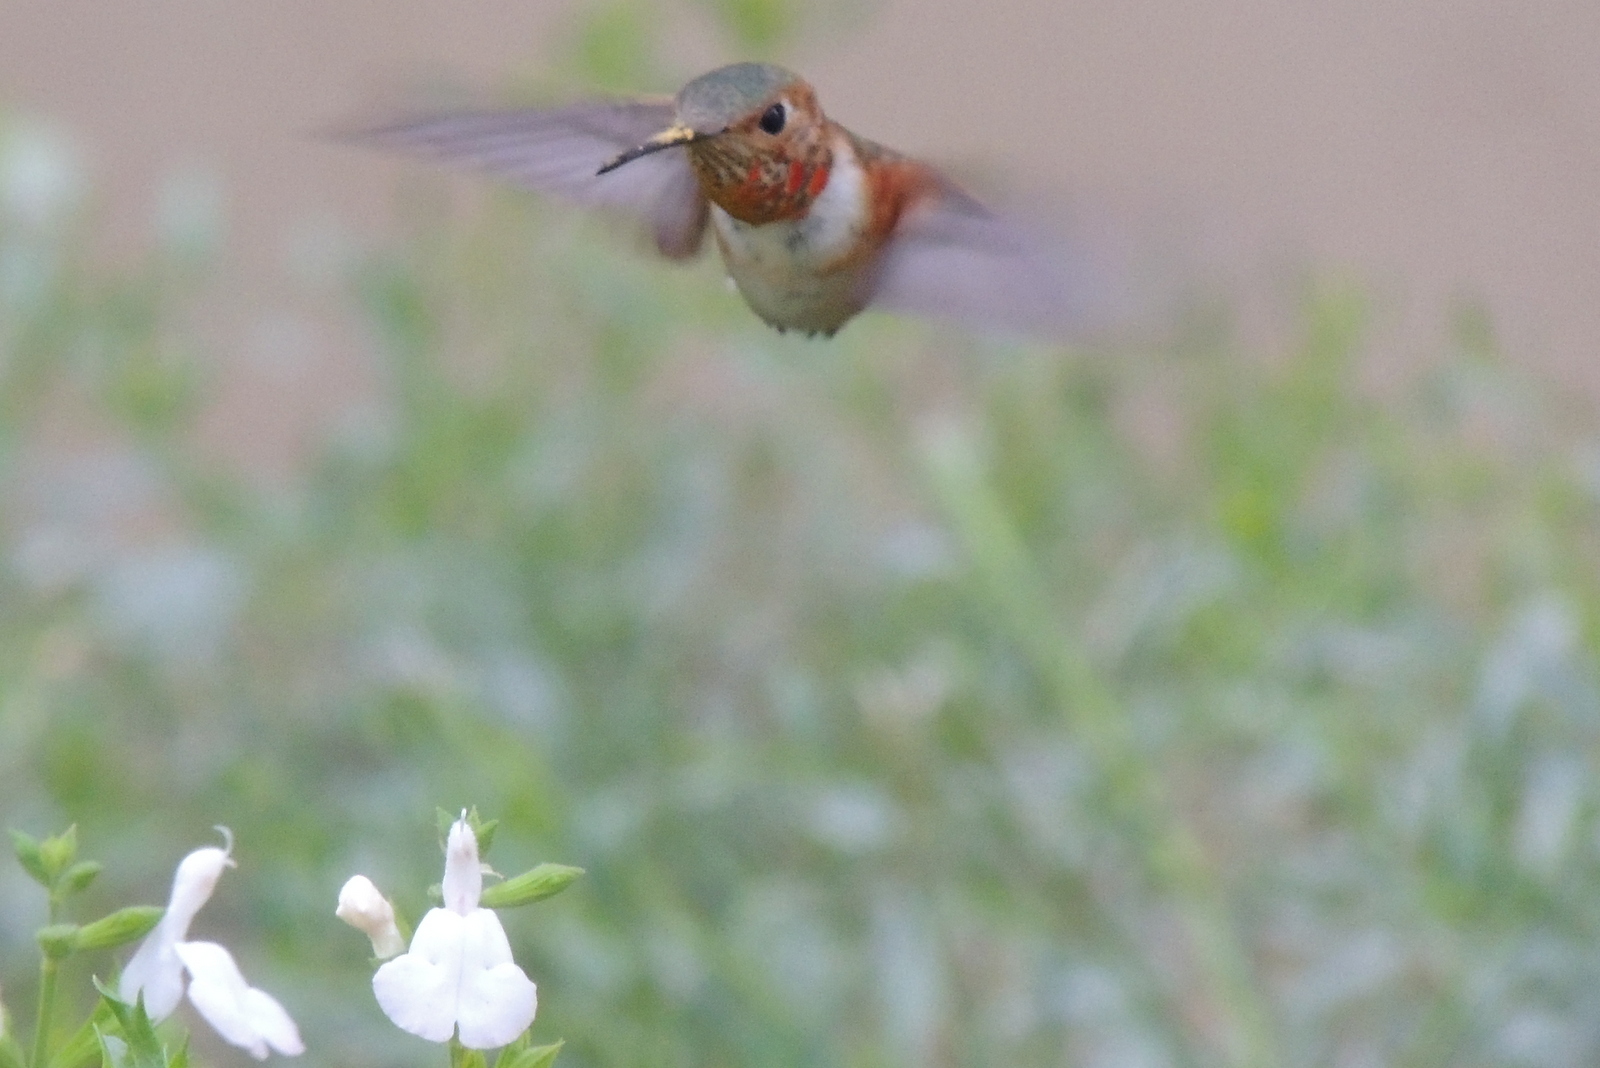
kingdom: Animalia
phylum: Chordata
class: Aves
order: Apodiformes
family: Trochilidae
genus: Selasphorus
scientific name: Selasphorus sasin
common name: Allen's hummingbird
